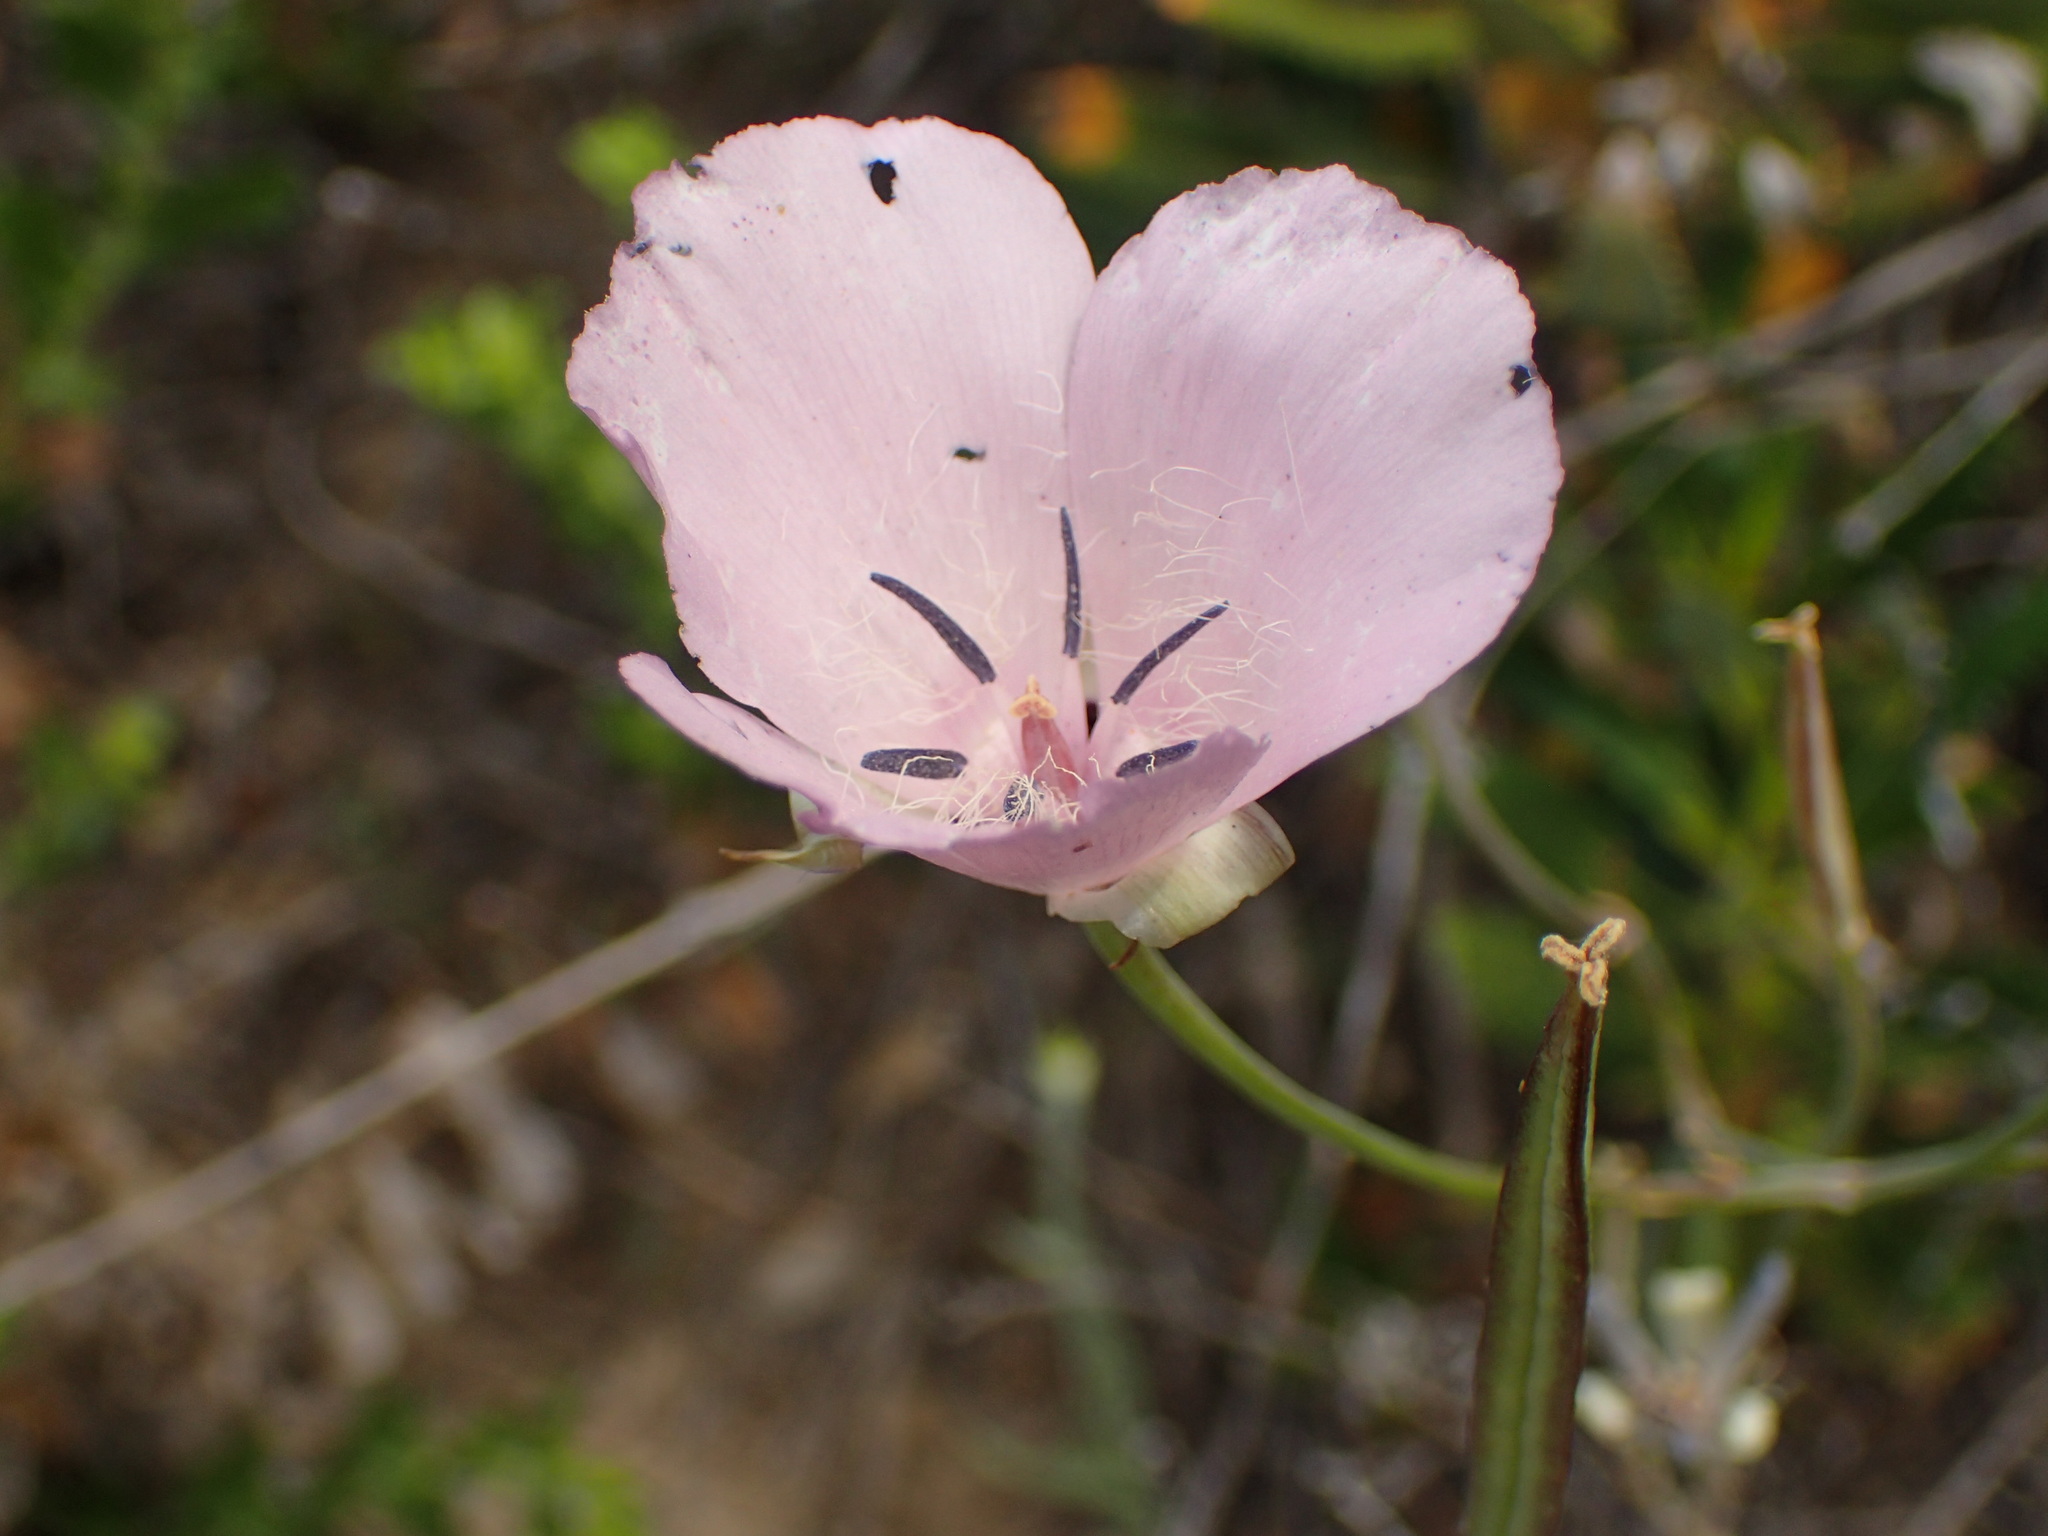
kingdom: Plantae
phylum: Tracheophyta
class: Liliopsida
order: Liliales
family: Liliaceae
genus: Calochortus
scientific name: Calochortus splendens
